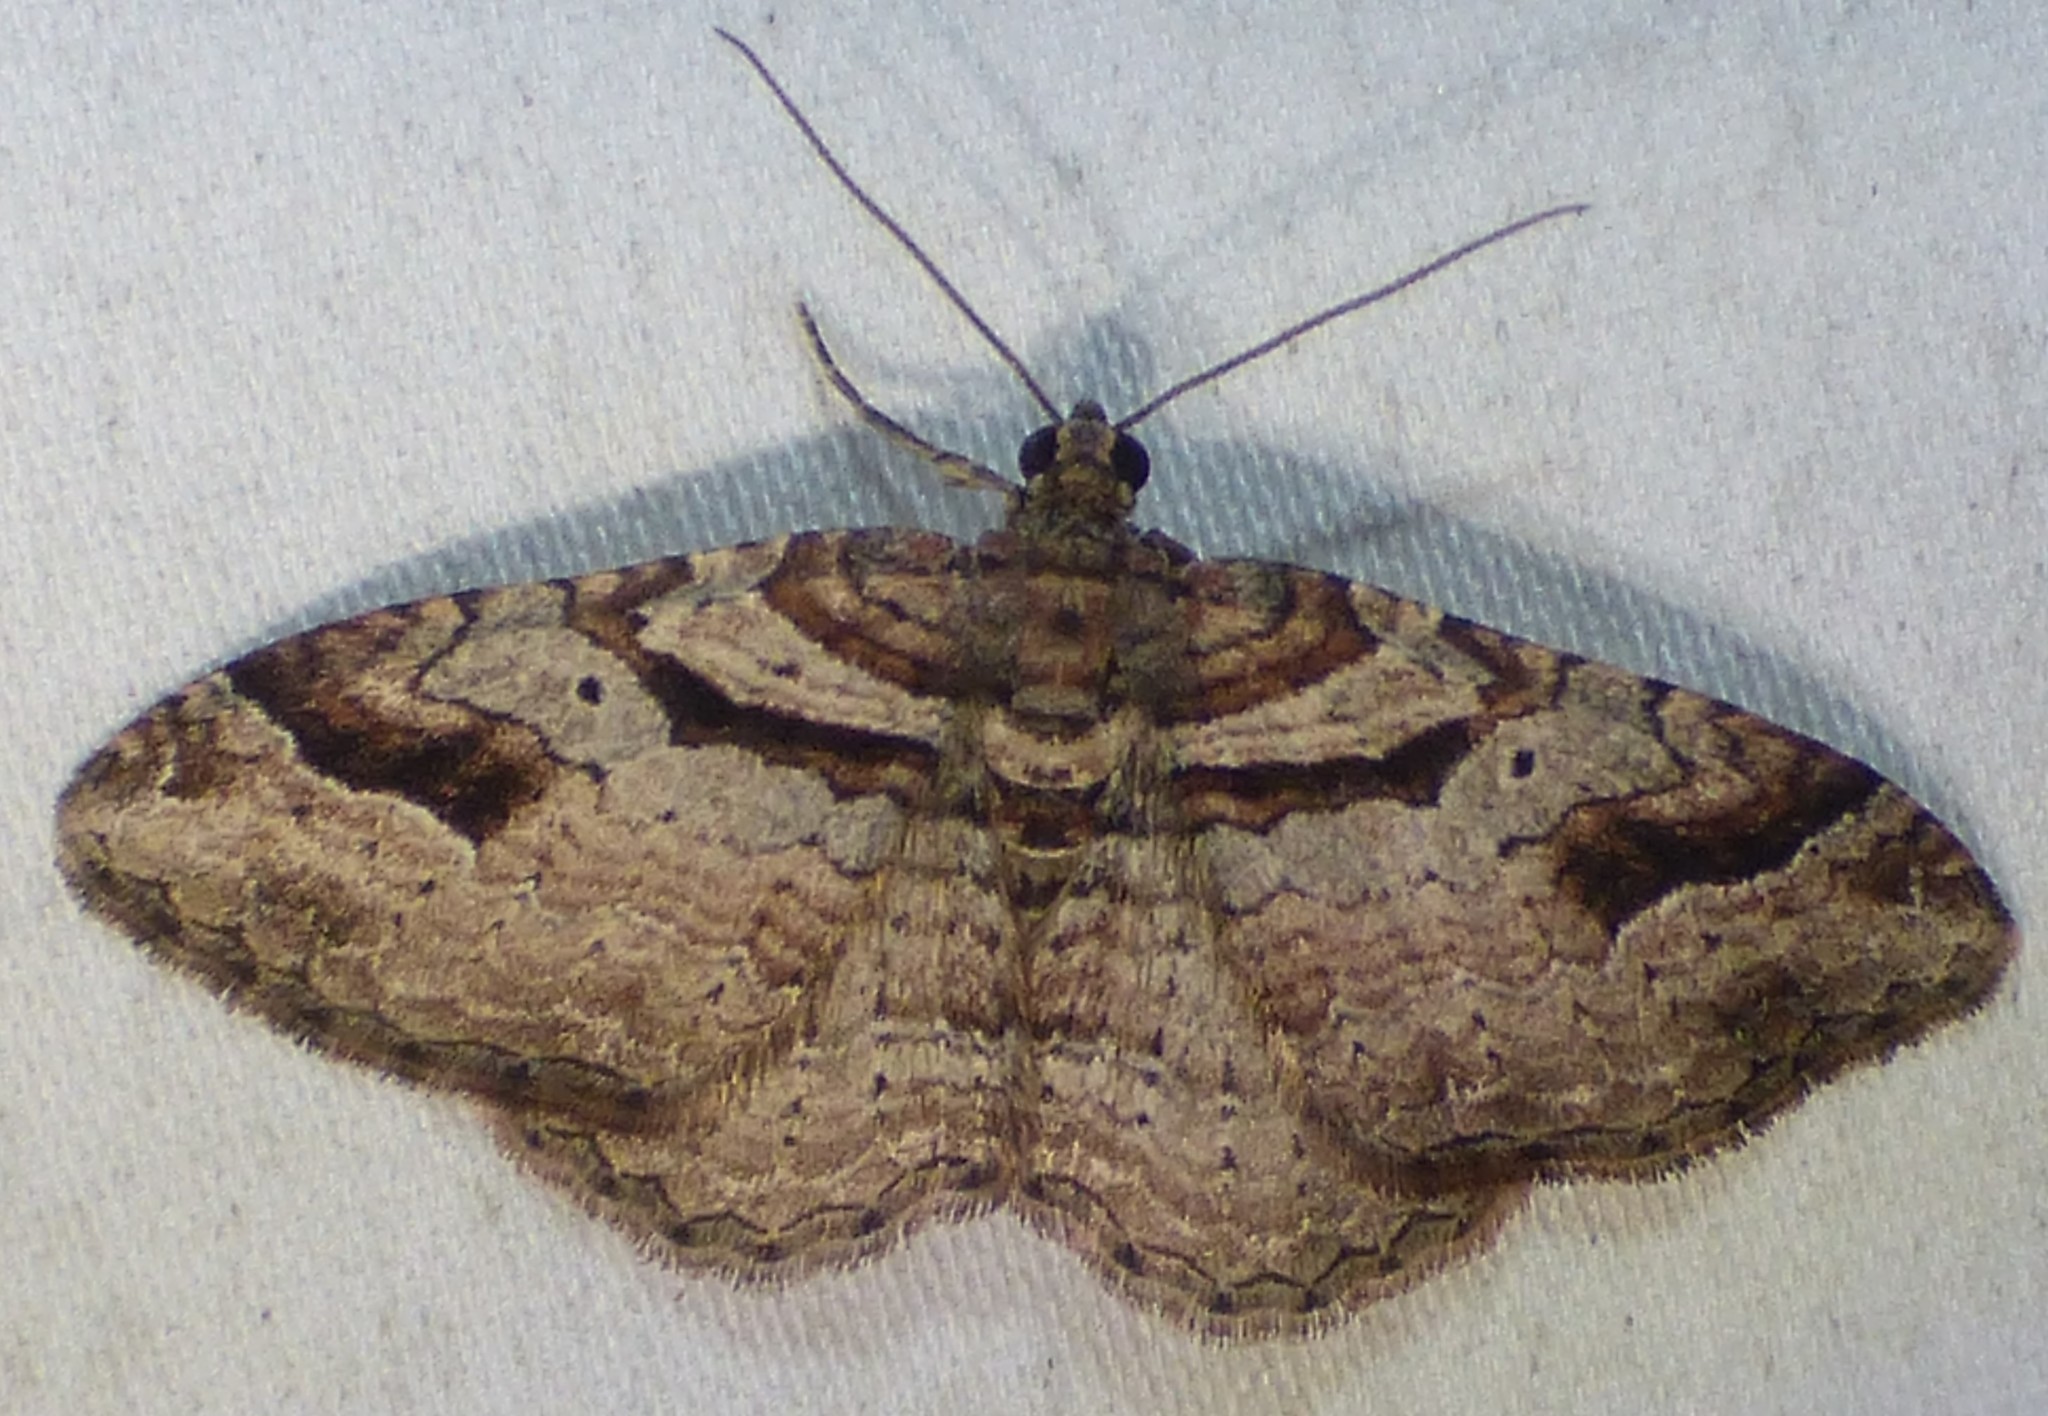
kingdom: Animalia
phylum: Arthropoda
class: Insecta
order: Lepidoptera
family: Geometridae
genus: Costaconvexa
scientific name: Costaconvexa centrostrigaria
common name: Bent-line carpet
